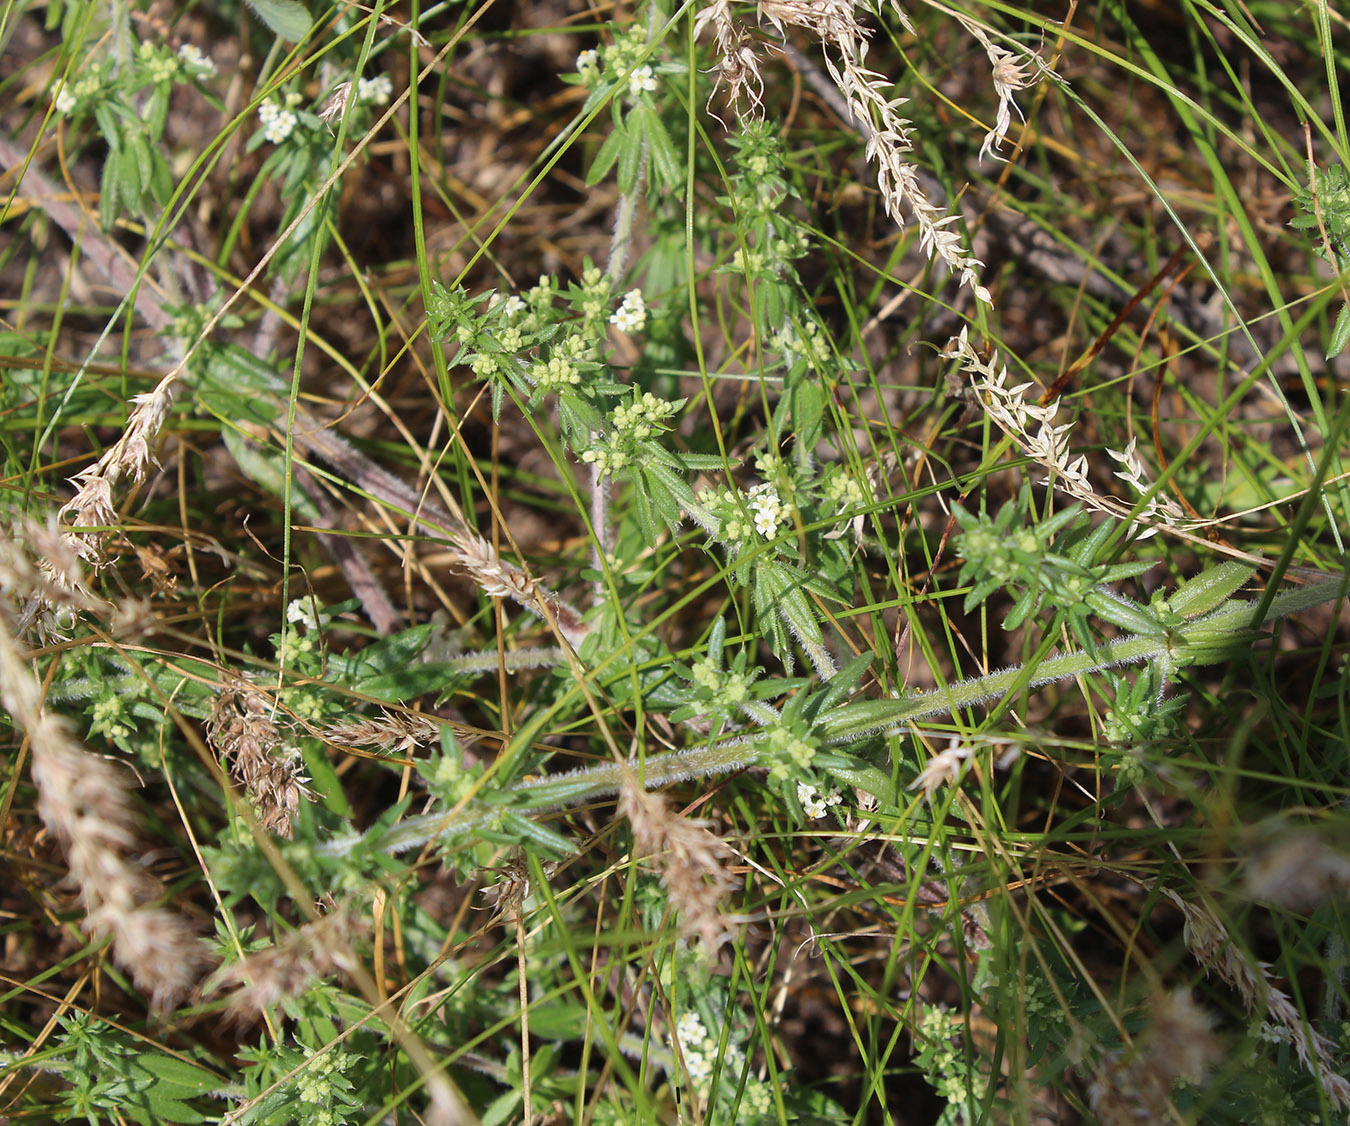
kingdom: Plantae
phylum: Tracheophyta
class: Magnoliopsida
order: Gentianales
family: Rubiaceae
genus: Galium
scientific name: Galium humifusum
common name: Spreading bedstraw
